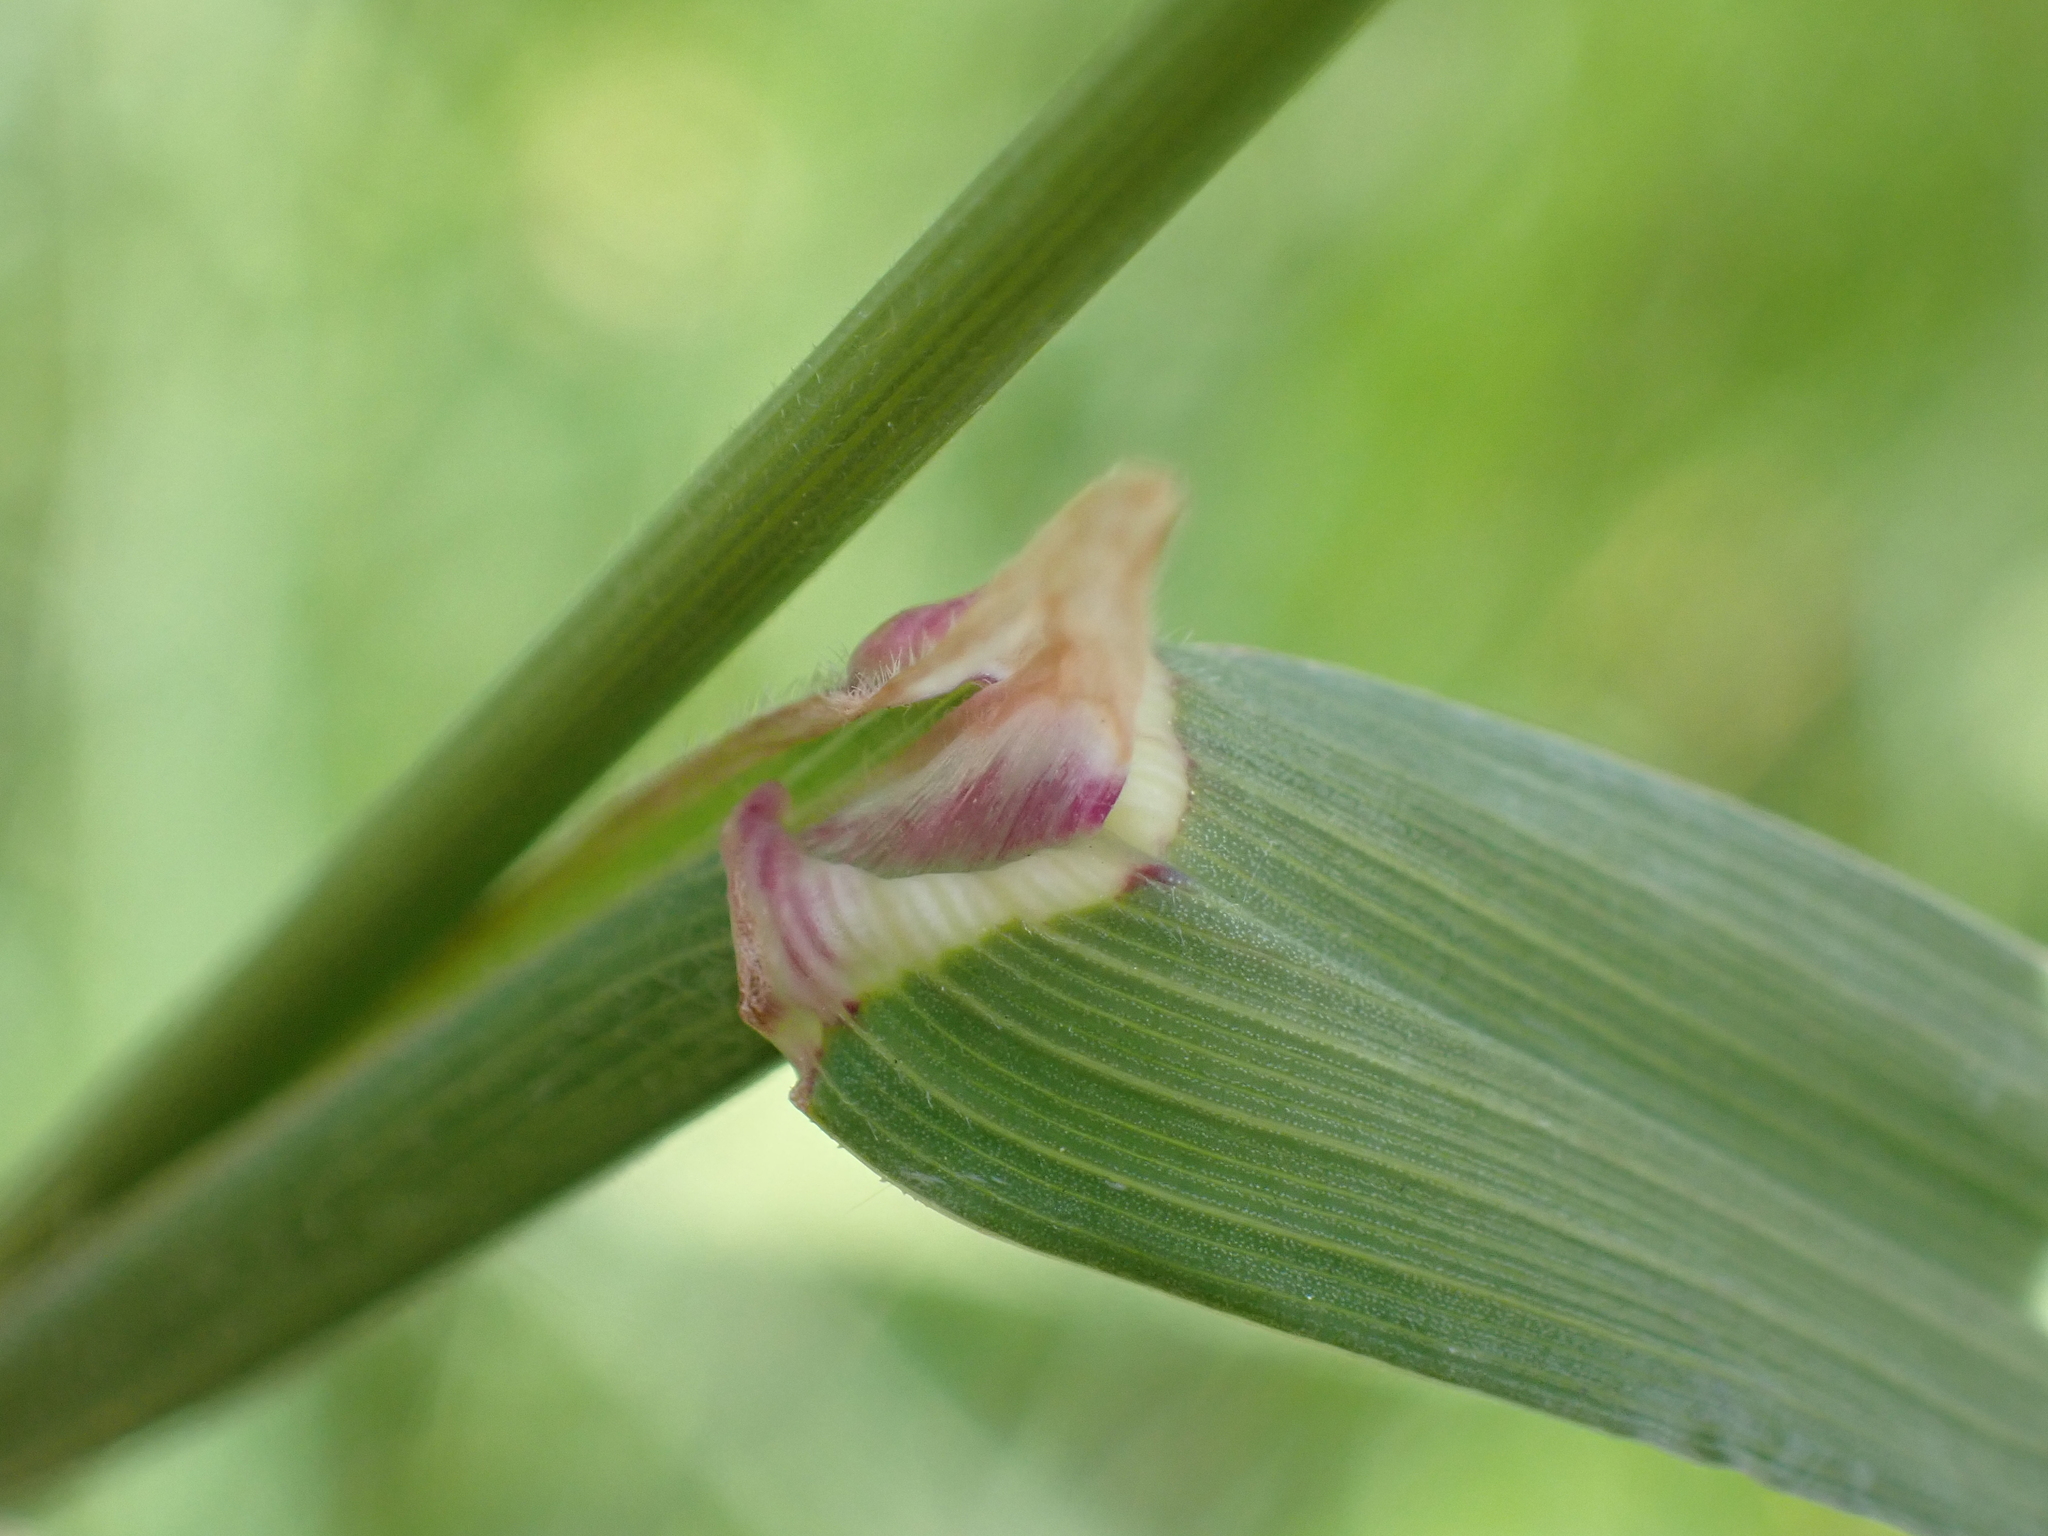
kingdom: Plantae
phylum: Tracheophyta
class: Liliopsida
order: Poales
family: Poaceae
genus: Dactylis
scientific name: Dactylis glomerata
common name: Orchardgrass
